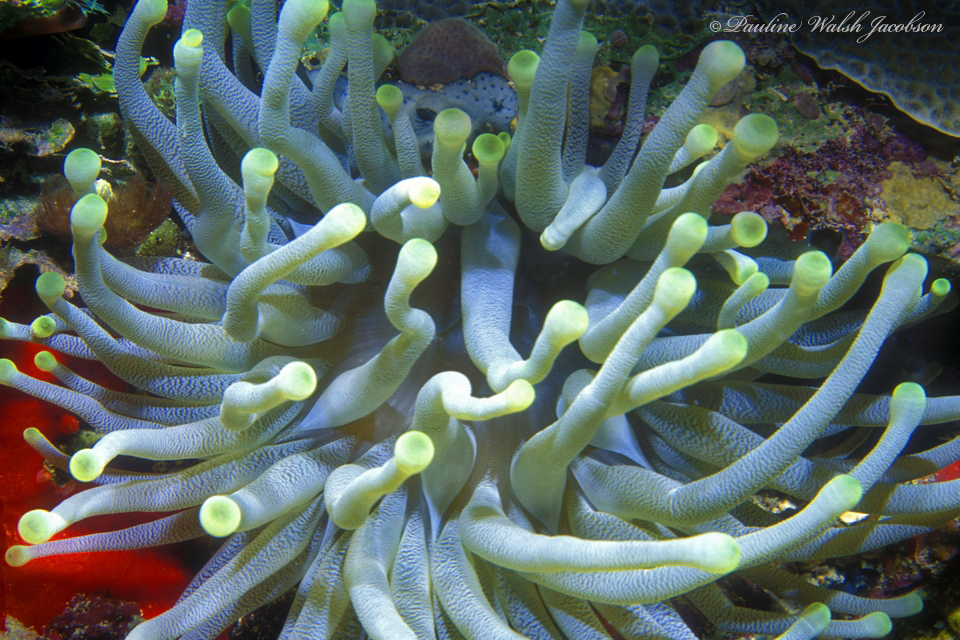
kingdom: Animalia
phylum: Cnidaria
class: Anthozoa
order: Actiniaria
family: Actiniidae
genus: Condylactis
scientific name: Condylactis gigantea
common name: Giant caribbean anemone
